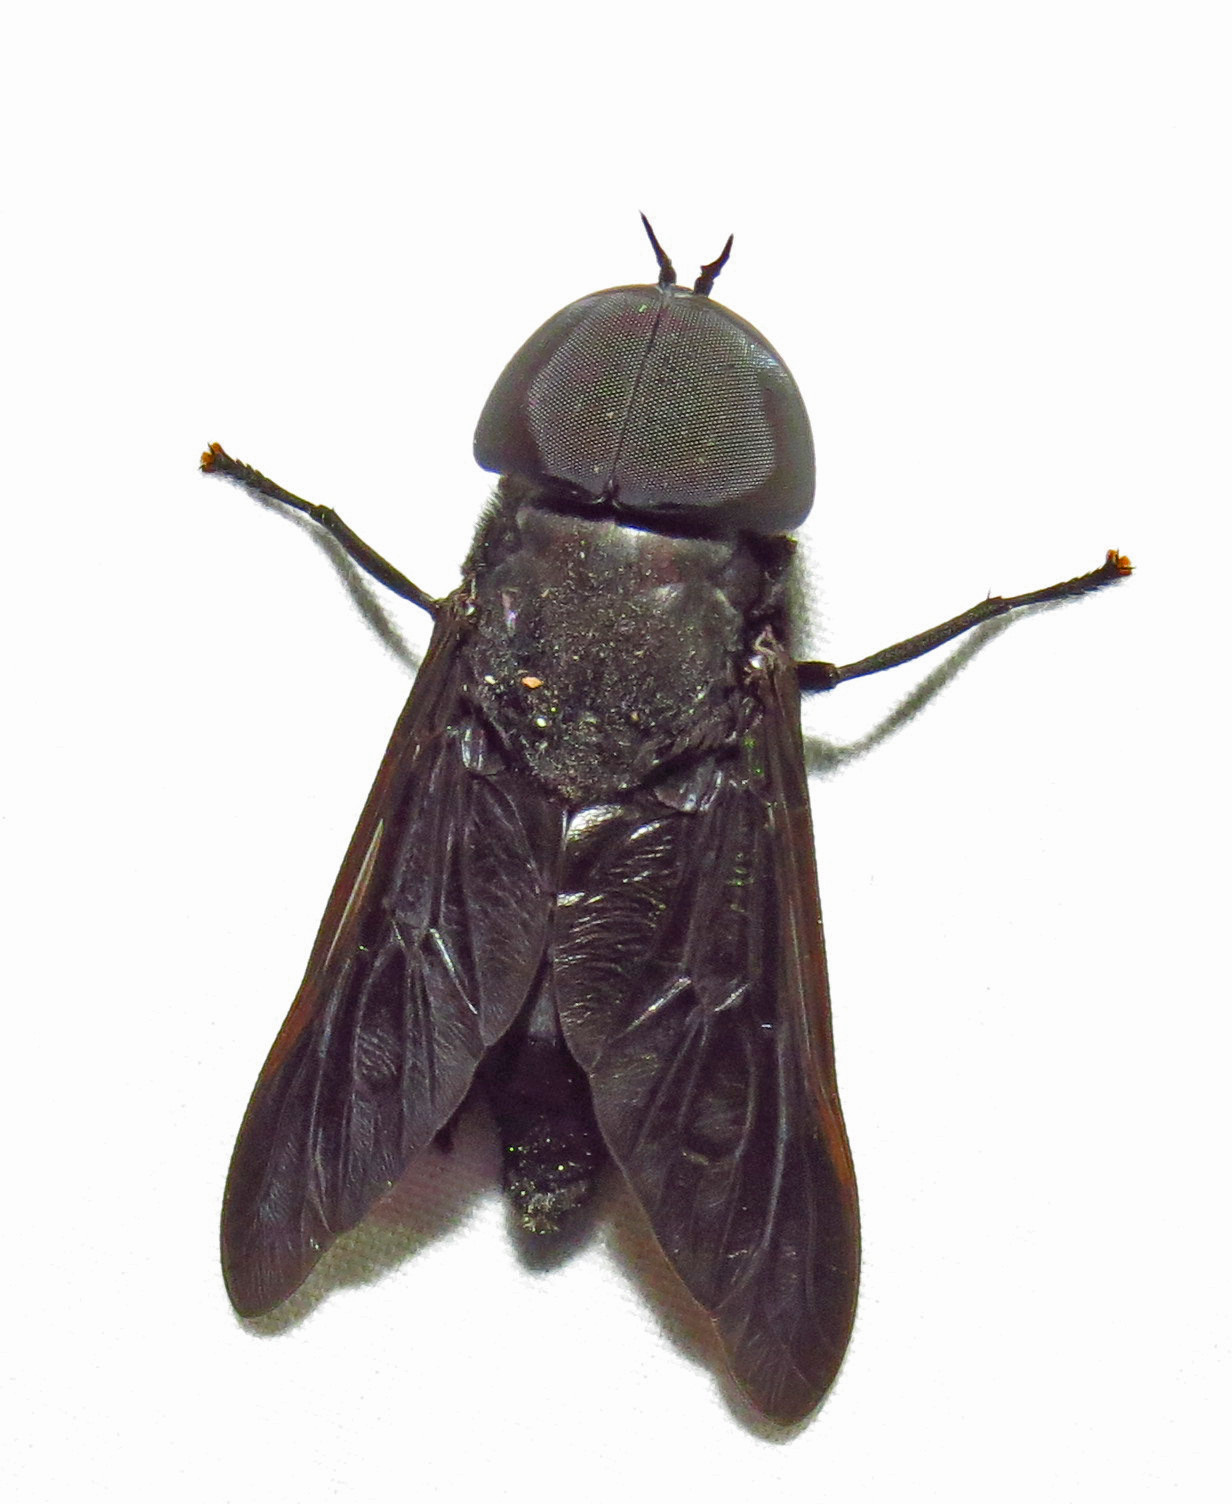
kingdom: Animalia
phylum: Arthropoda
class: Insecta
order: Diptera
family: Tabanidae
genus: Tabanus
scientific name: Tabanus atratus
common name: Black horse fly
